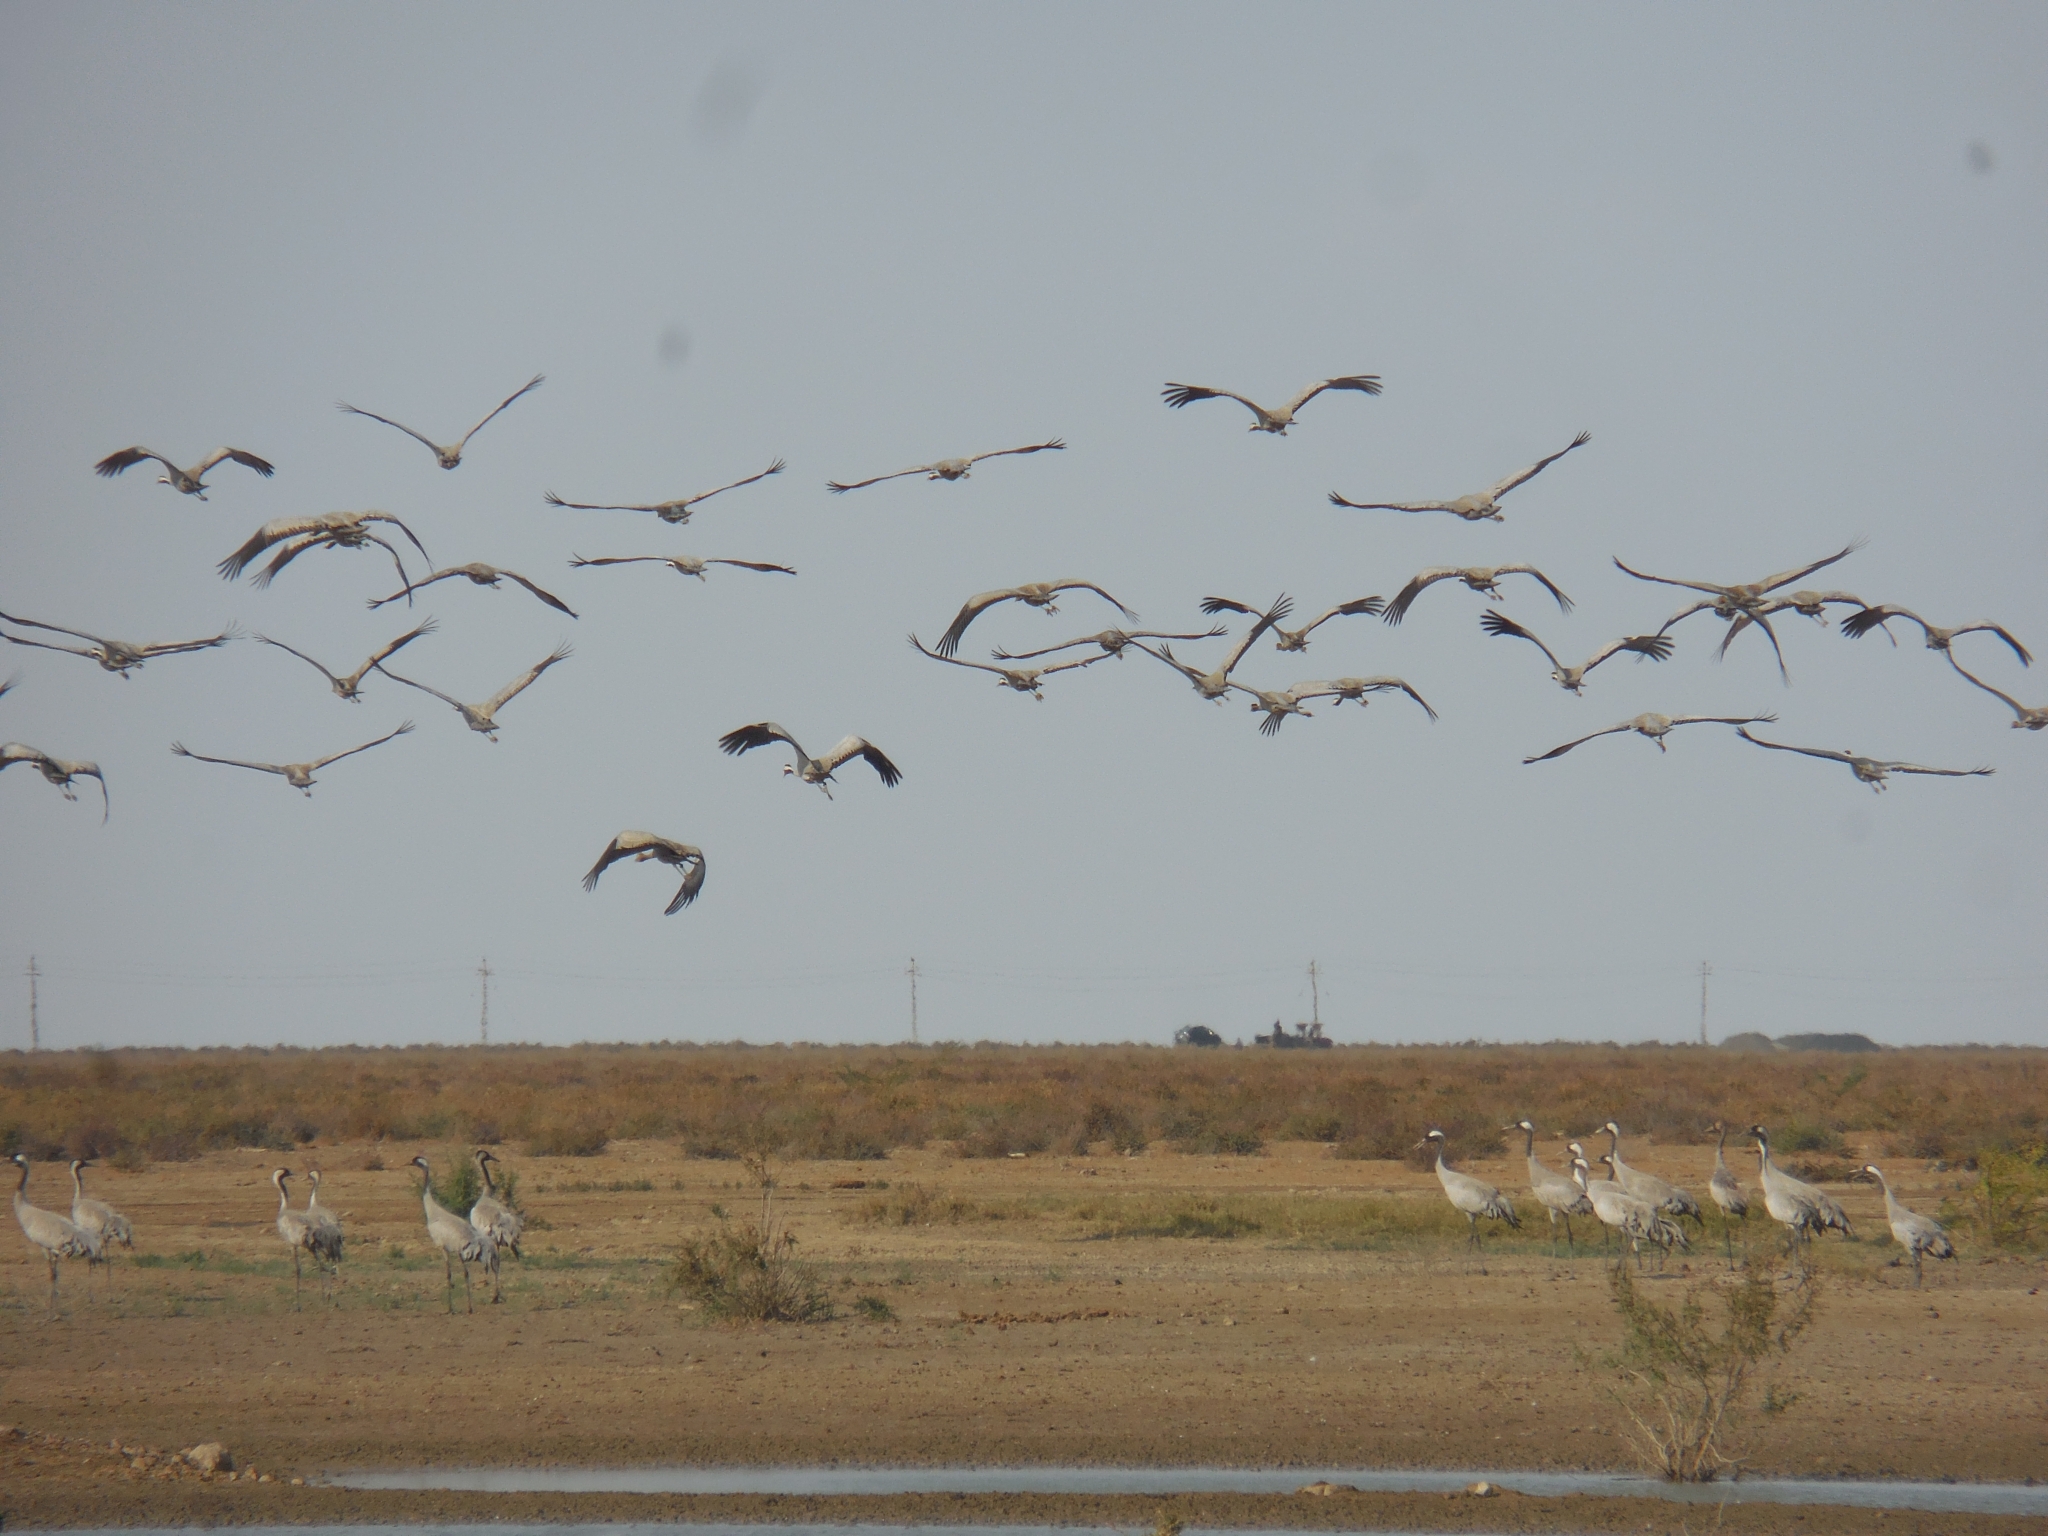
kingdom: Animalia
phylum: Chordata
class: Aves
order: Gruiformes
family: Gruidae
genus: Grus
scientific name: Grus grus
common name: Common crane
